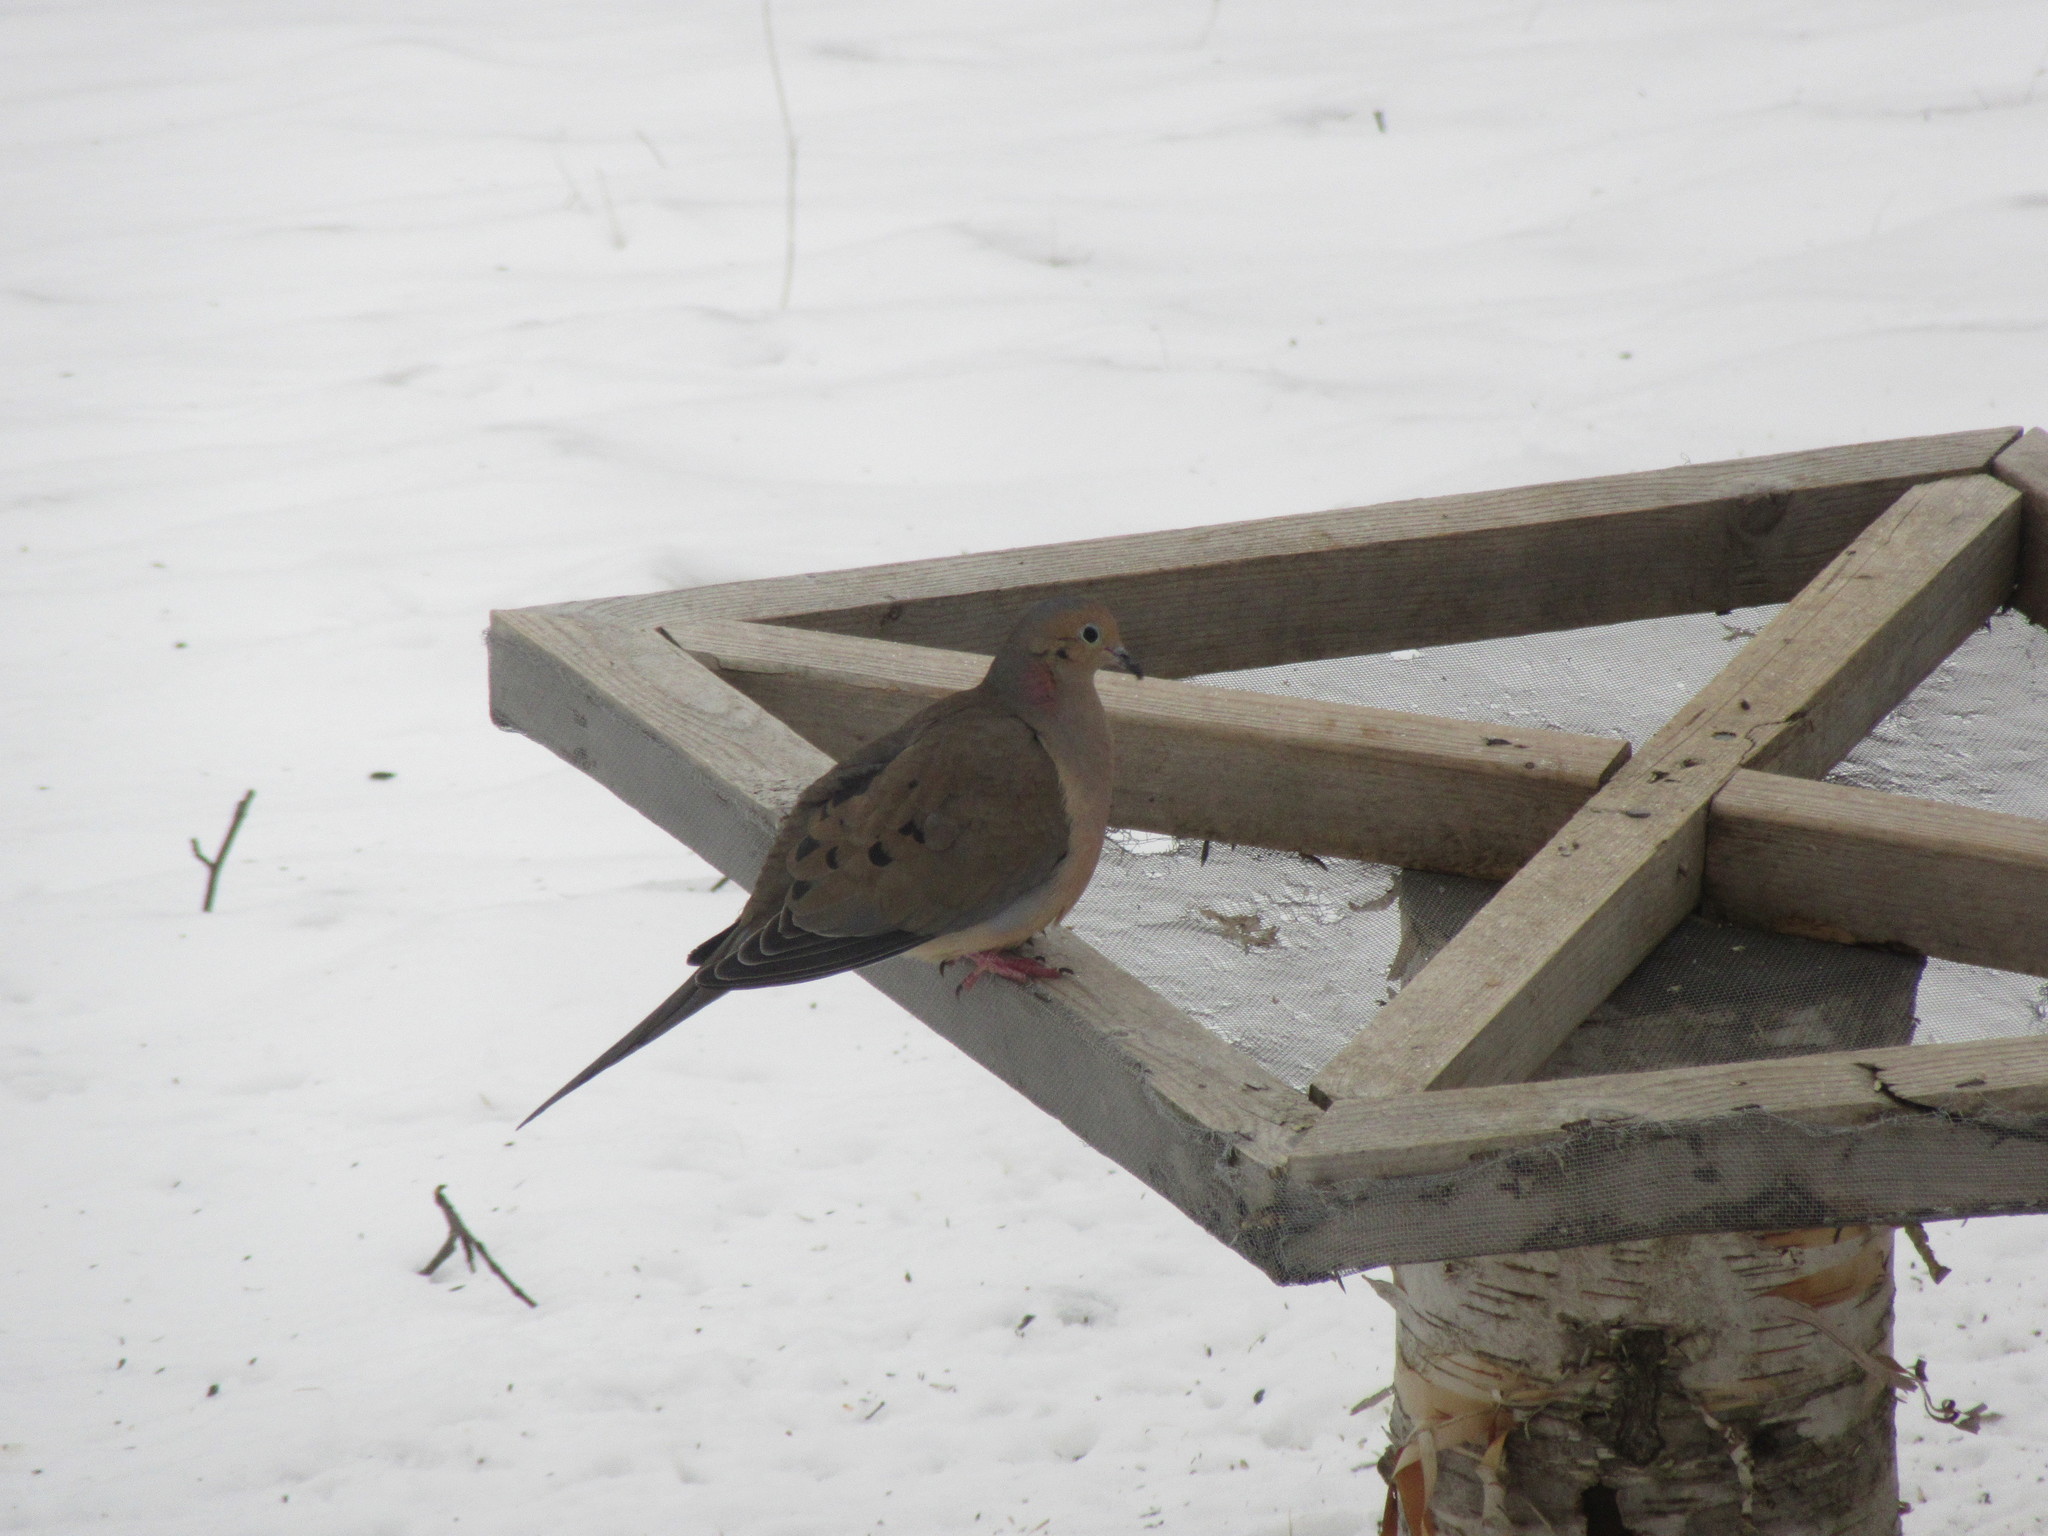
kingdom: Animalia
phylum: Chordata
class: Aves
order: Columbiformes
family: Columbidae
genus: Zenaida
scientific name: Zenaida macroura
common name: Mourning dove
